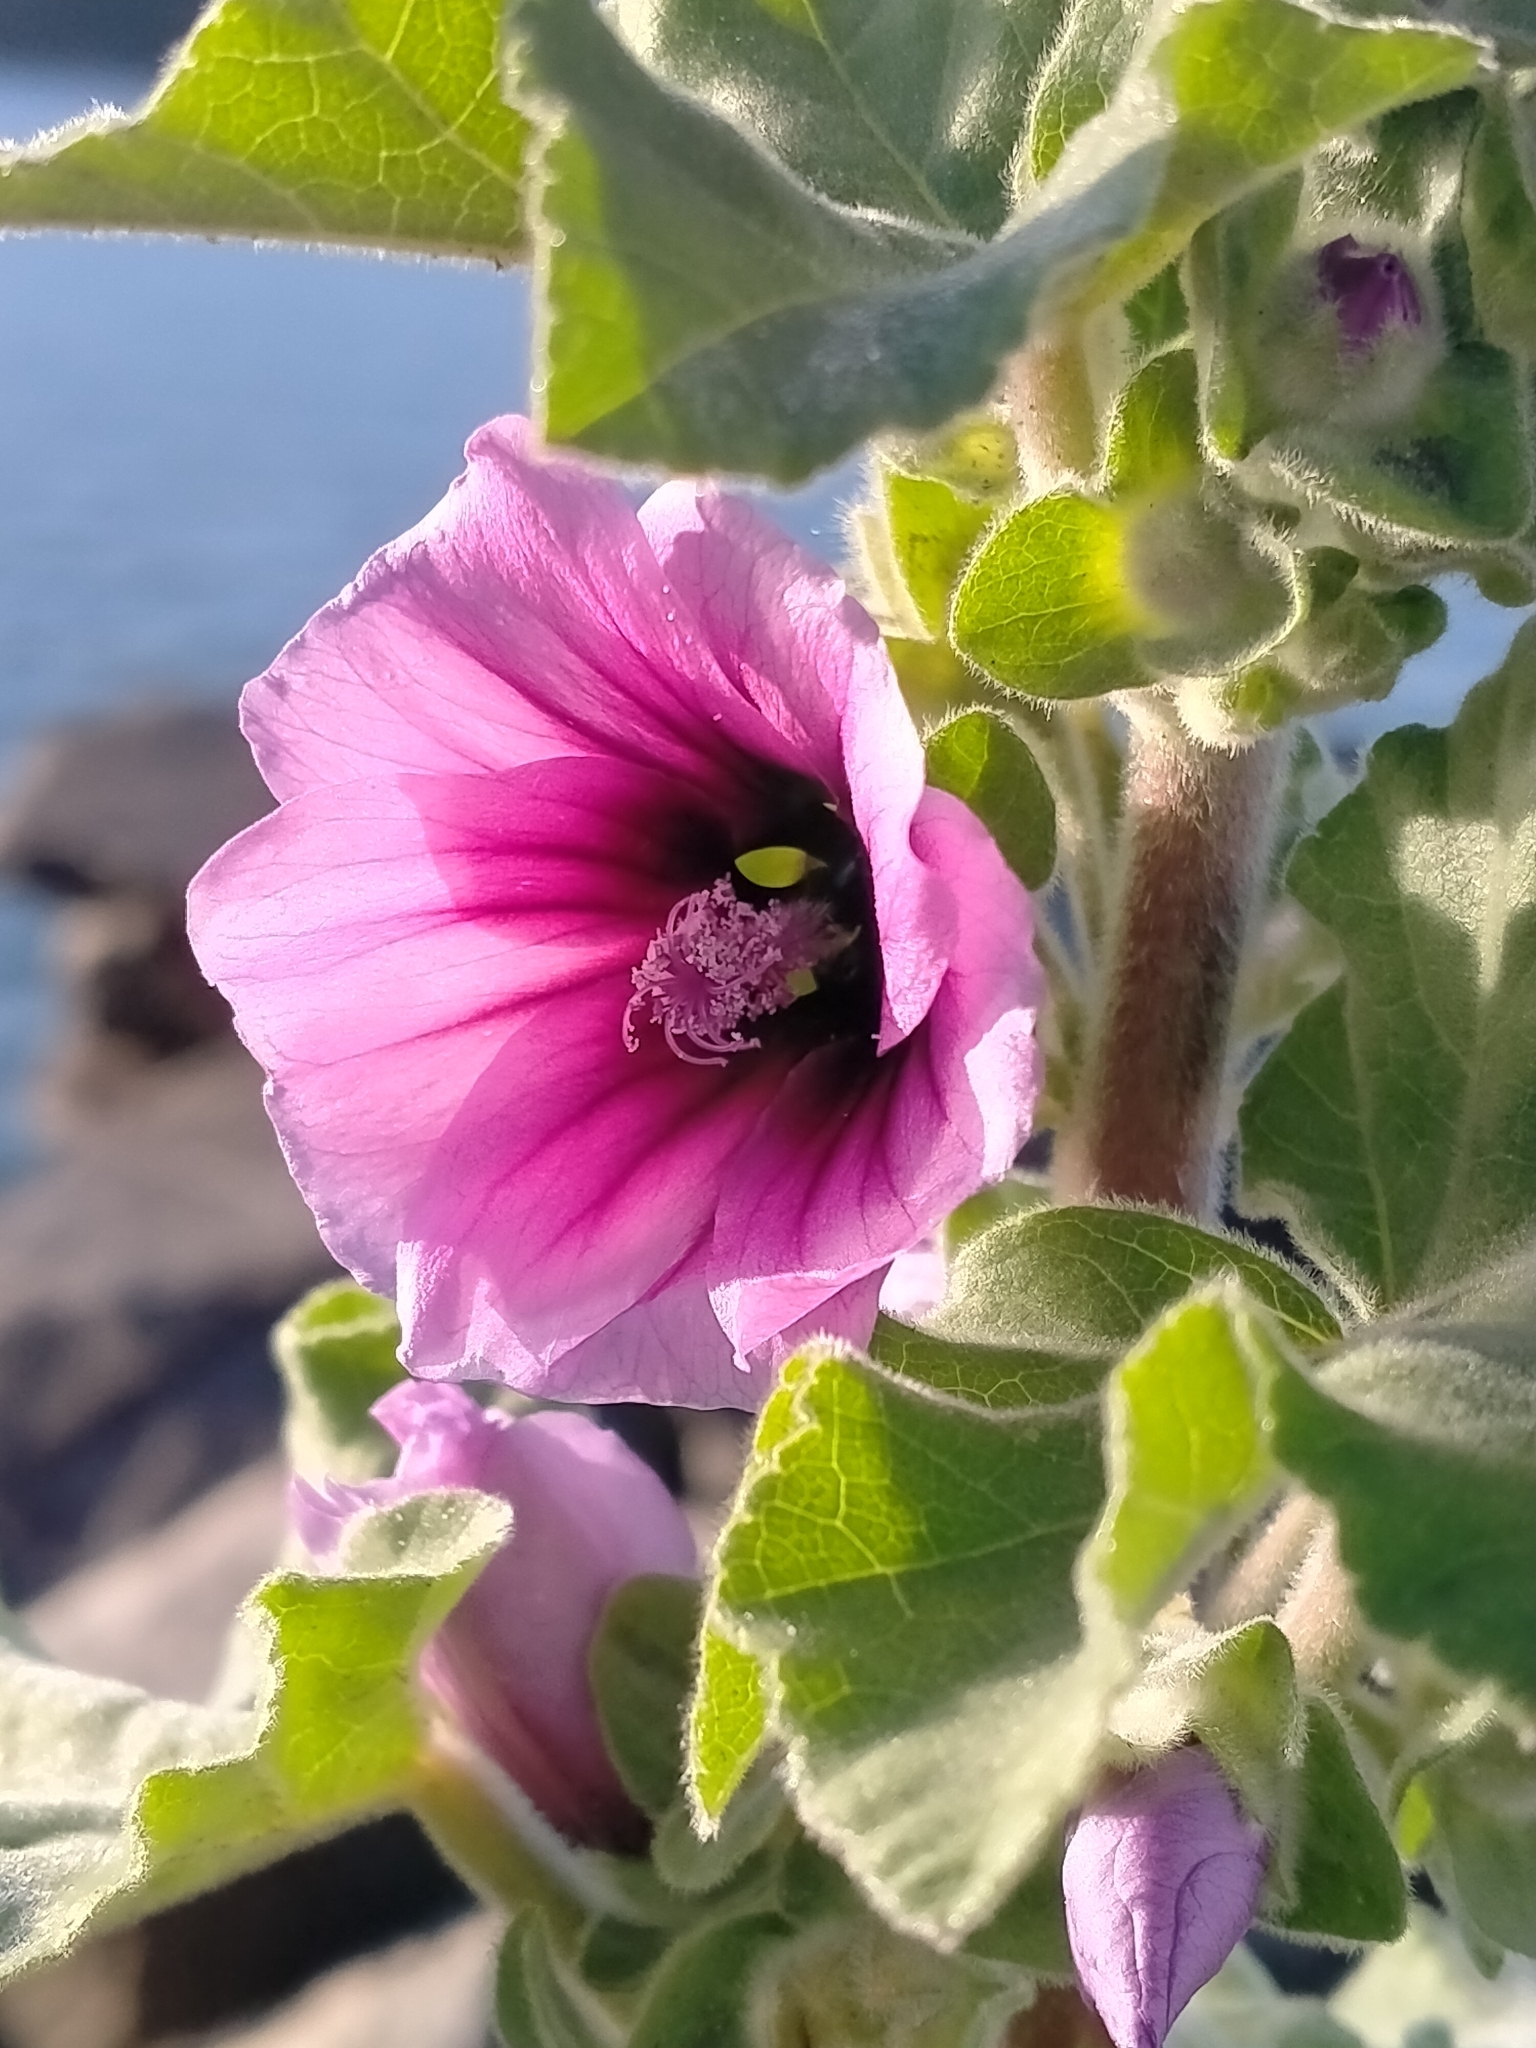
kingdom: Plantae
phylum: Tracheophyta
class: Magnoliopsida
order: Malvales
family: Malvaceae
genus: Malva
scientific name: Malva arborea
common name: Tree mallow
